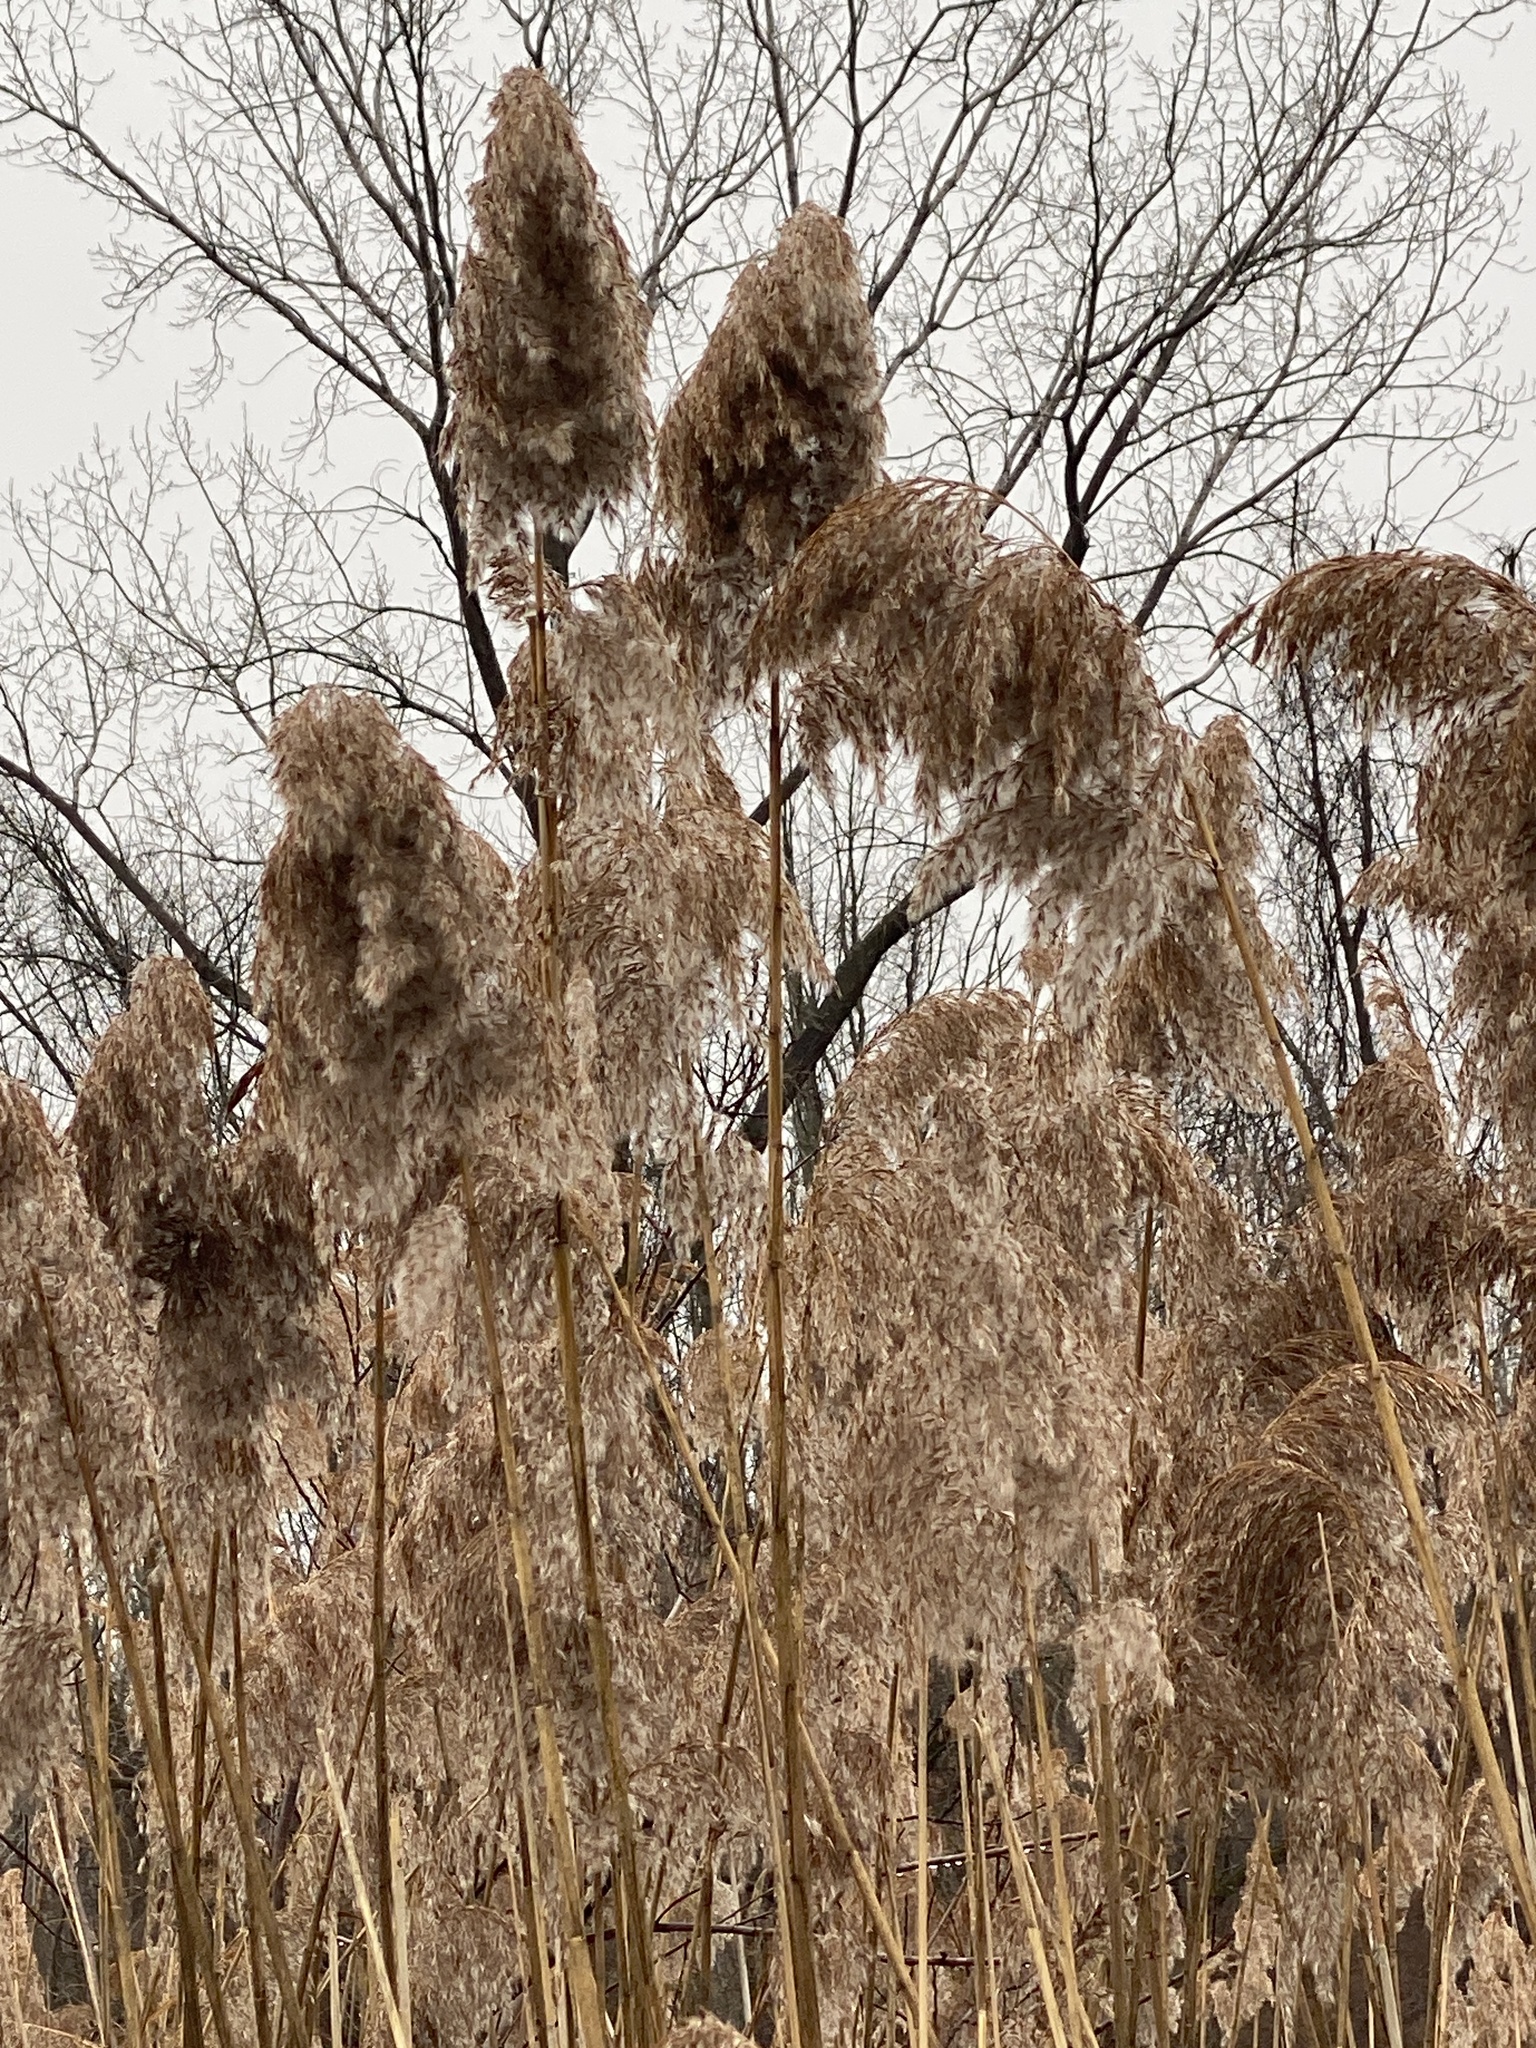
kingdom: Plantae
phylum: Tracheophyta
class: Liliopsida
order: Poales
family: Poaceae
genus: Phragmites
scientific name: Phragmites australis
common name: Common reed
